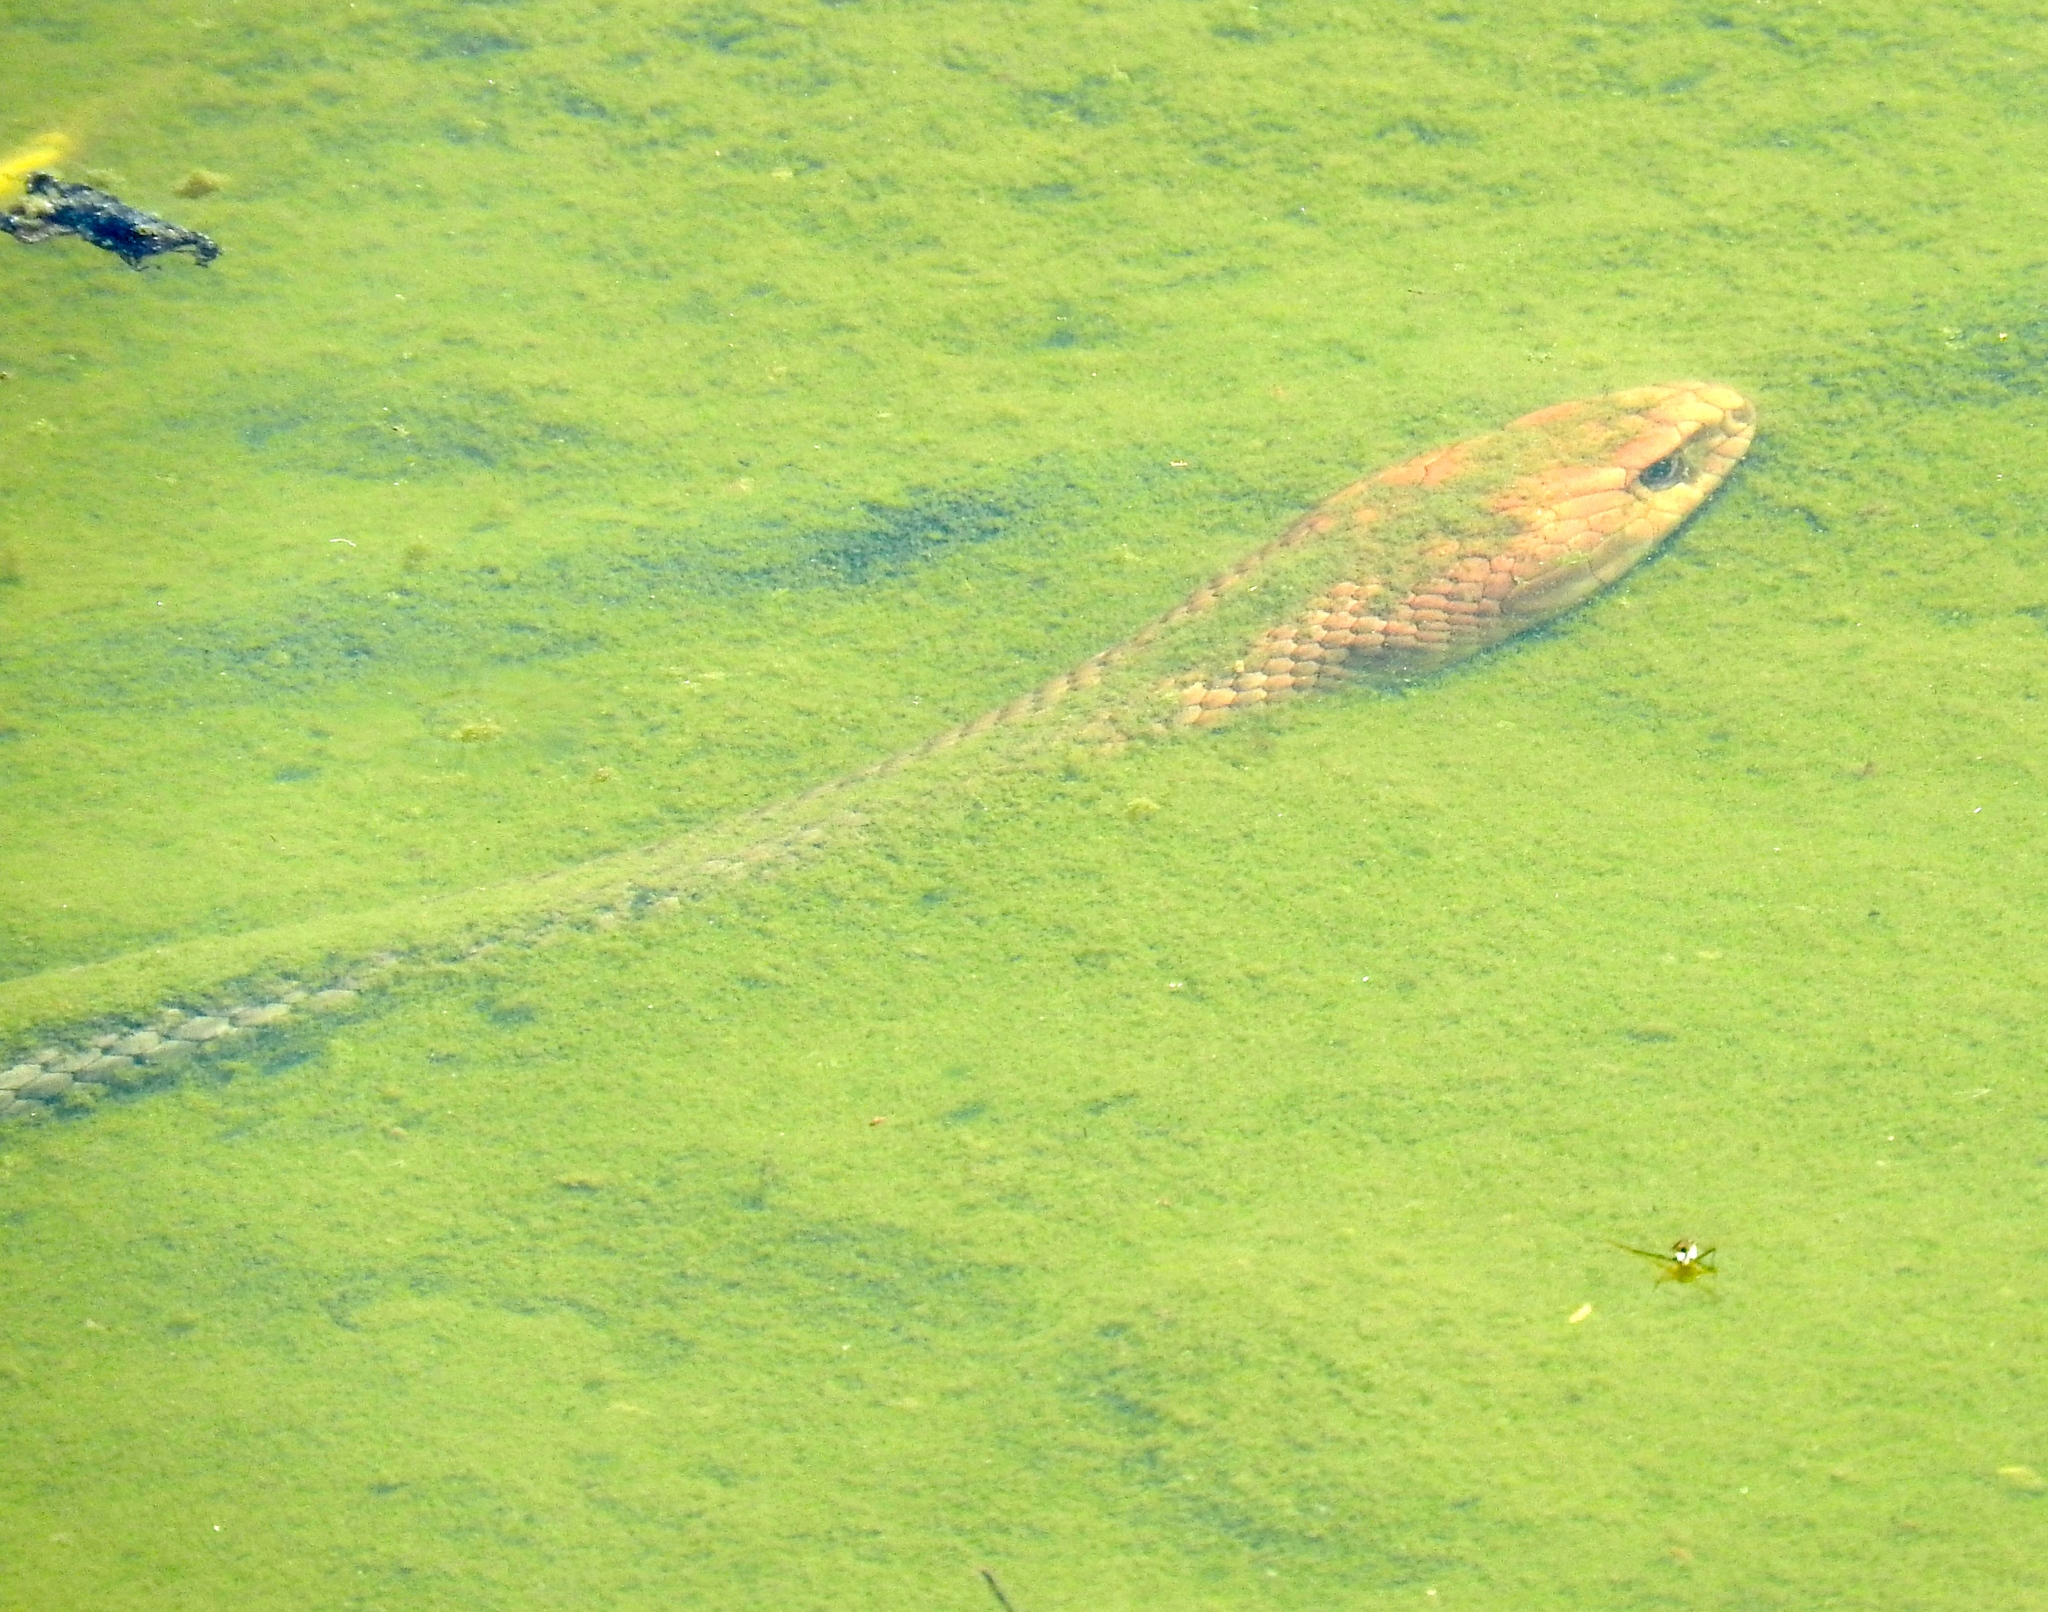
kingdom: Animalia
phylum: Chordata
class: Squamata
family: Colubridae
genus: Masticophis
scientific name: Masticophis mentovarius
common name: Neotropical whip snake
